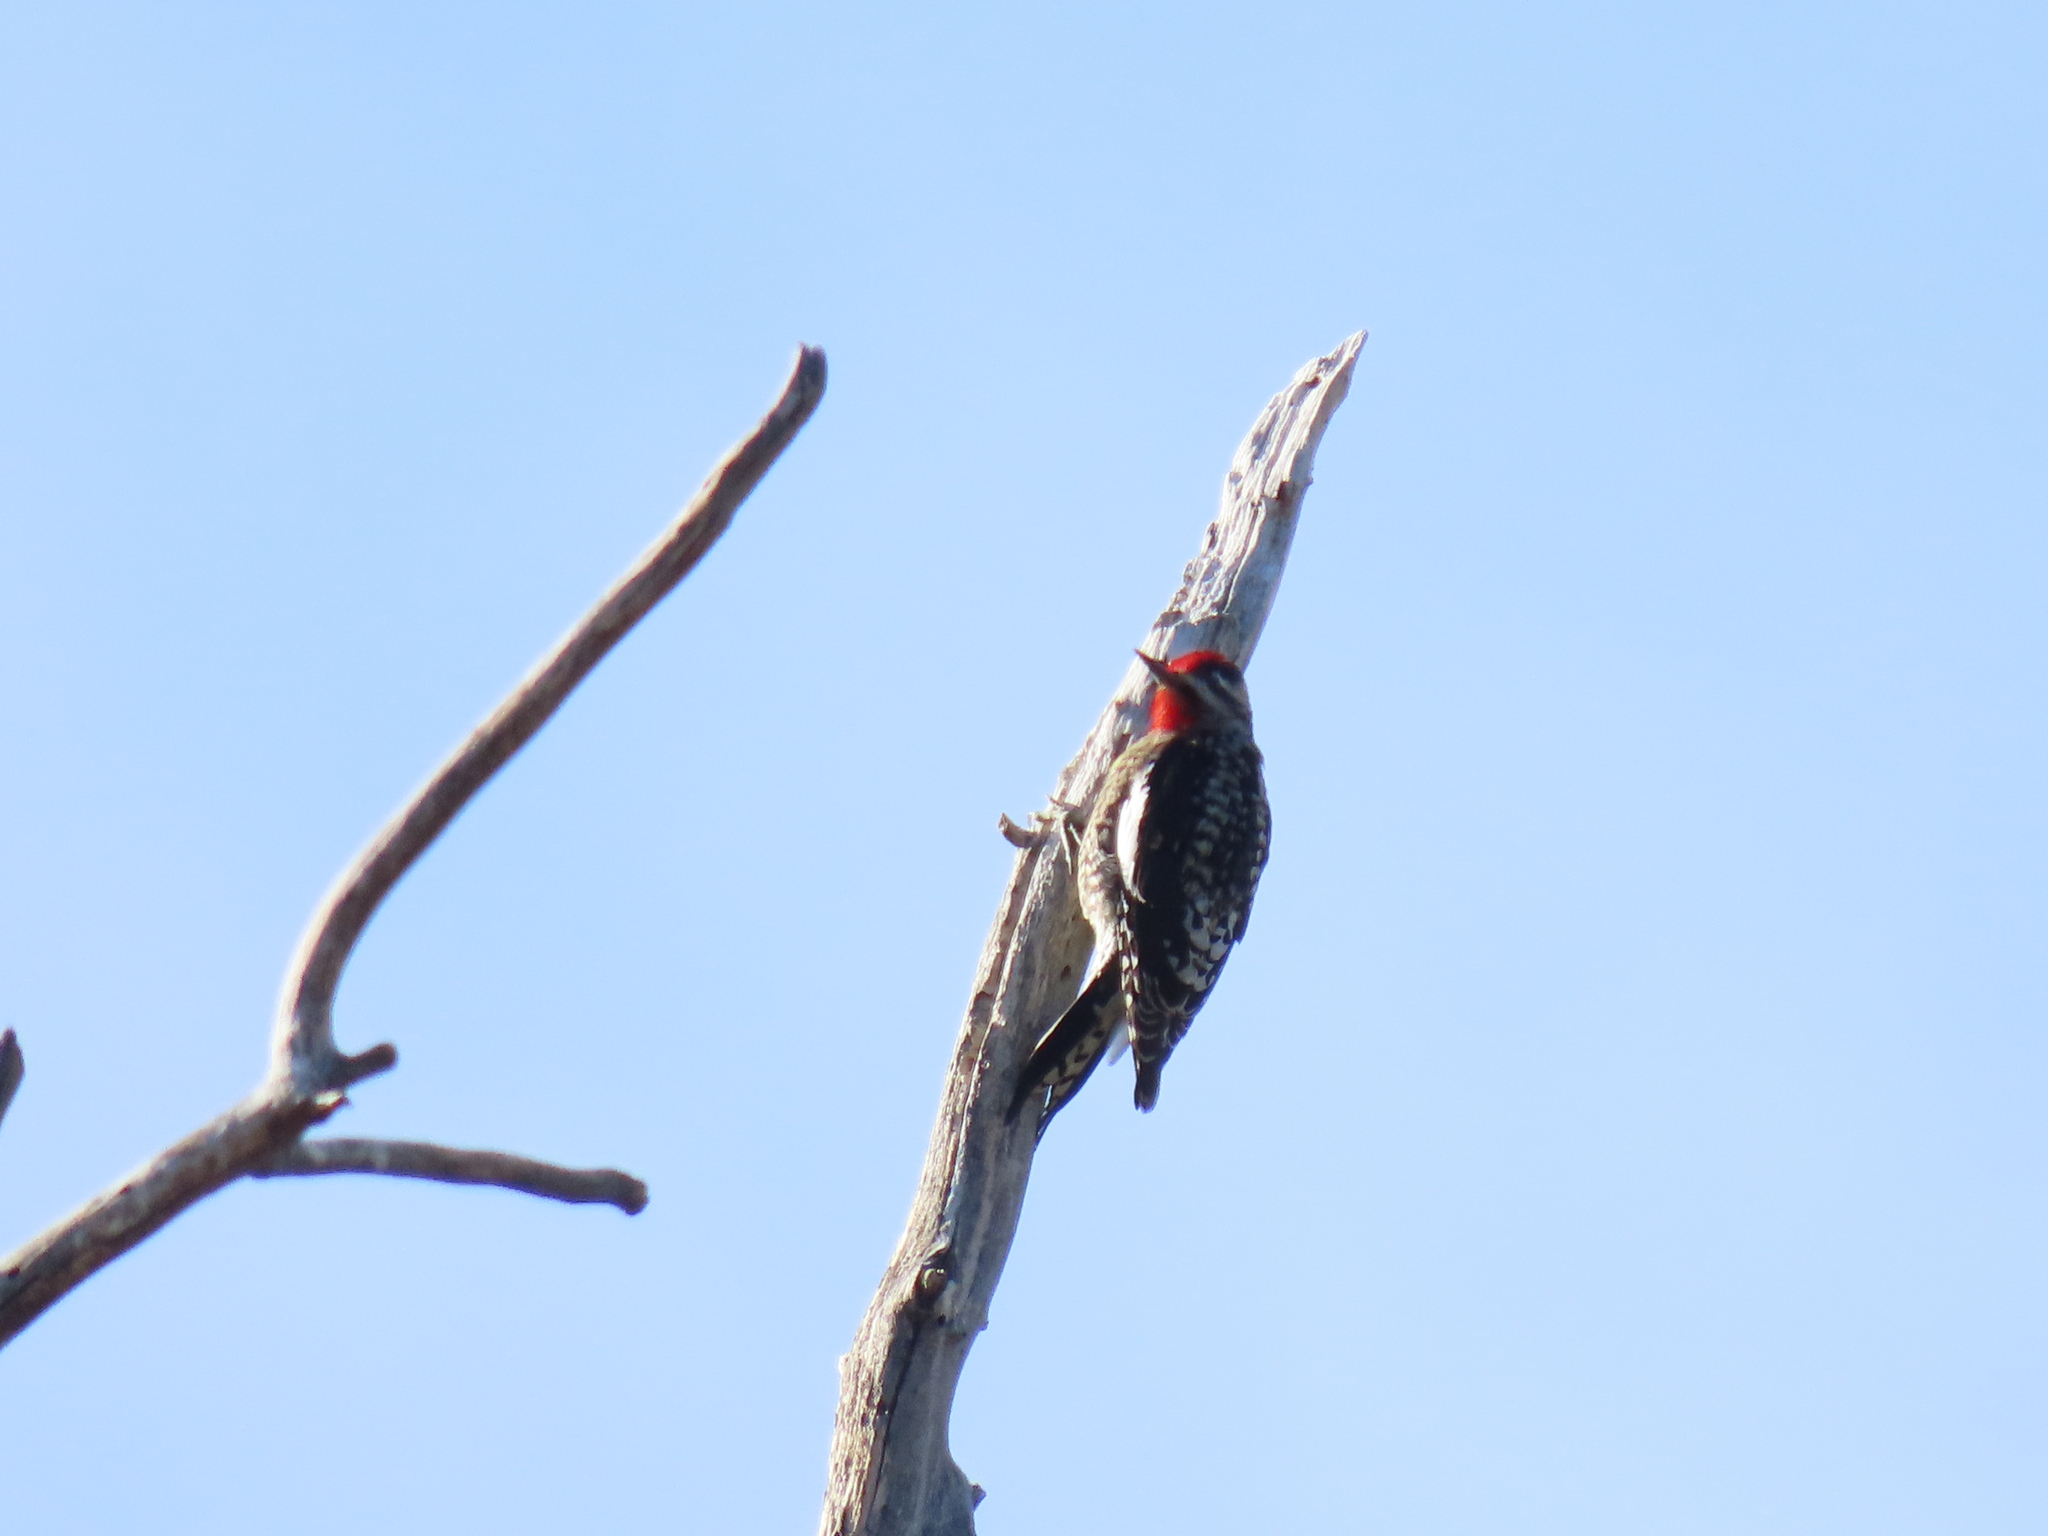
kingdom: Animalia
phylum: Chordata
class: Aves
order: Piciformes
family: Picidae
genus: Sphyrapicus
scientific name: Sphyrapicus nuchalis
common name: Red-naped sapsucker
